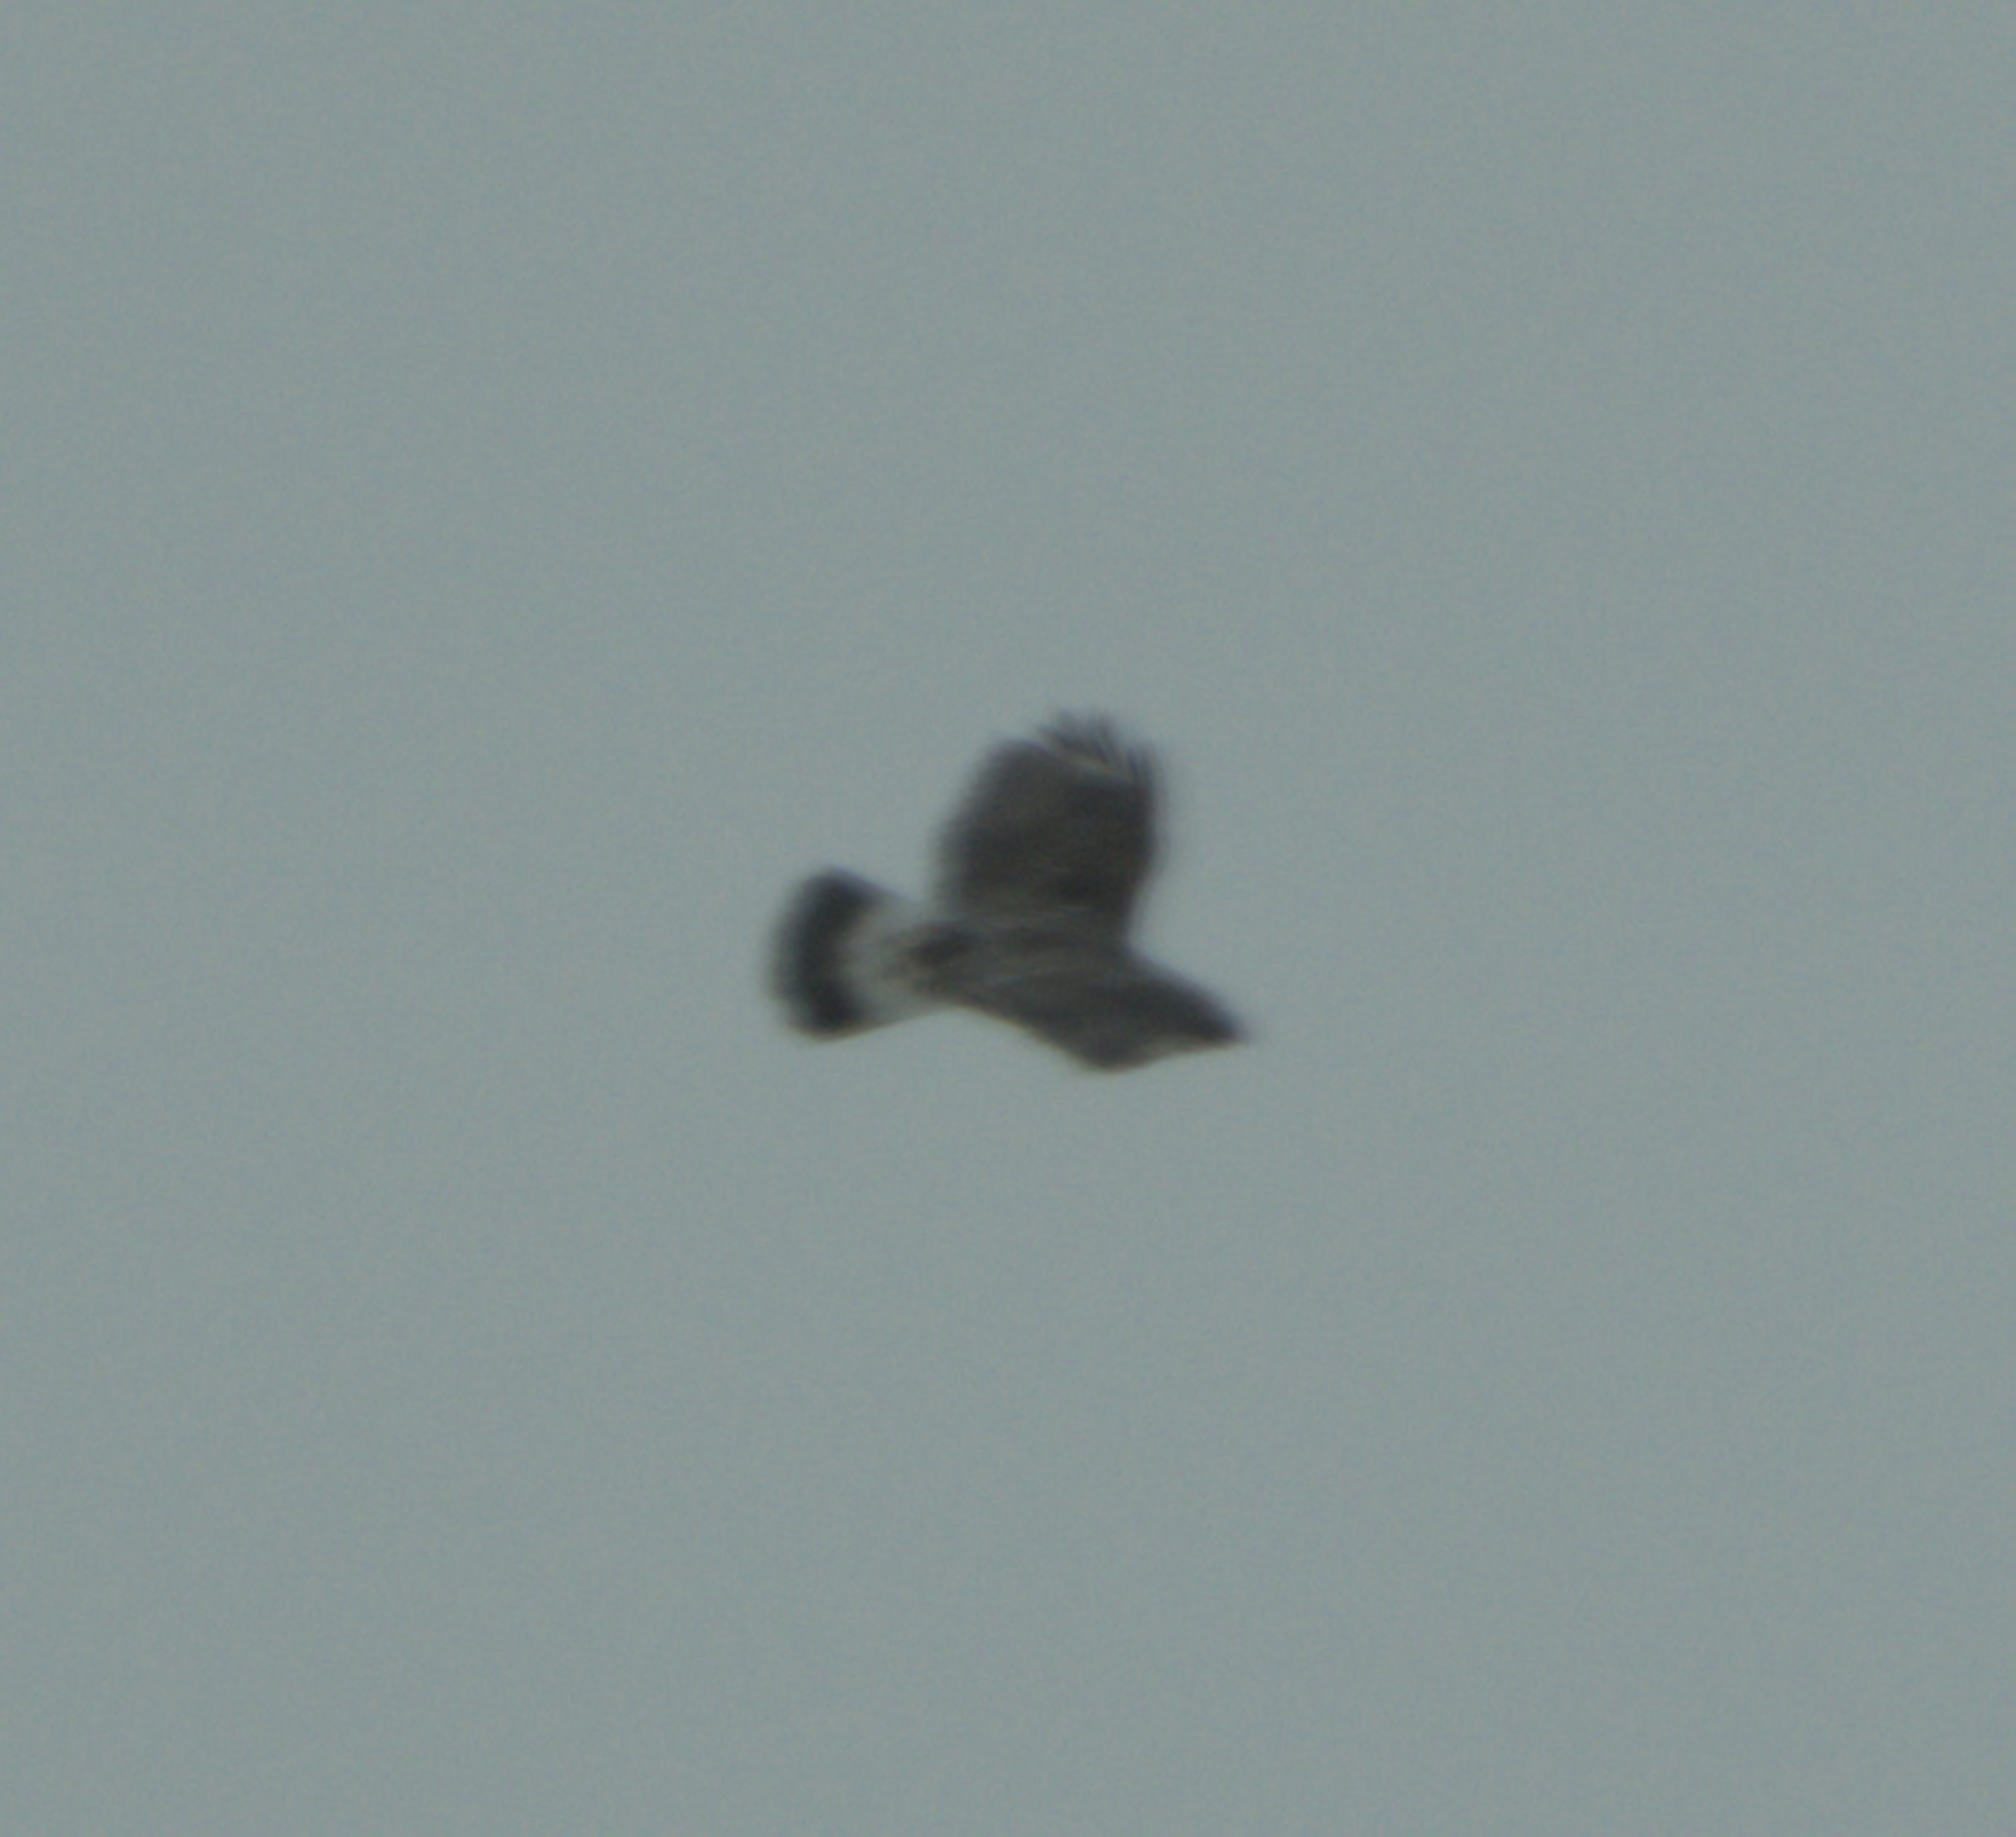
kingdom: Animalia
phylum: Chordata
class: Aves
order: Accipitriformes
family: Accipitridae
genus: Buteo
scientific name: Buteo lagopus
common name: Rough-legged buzzard
